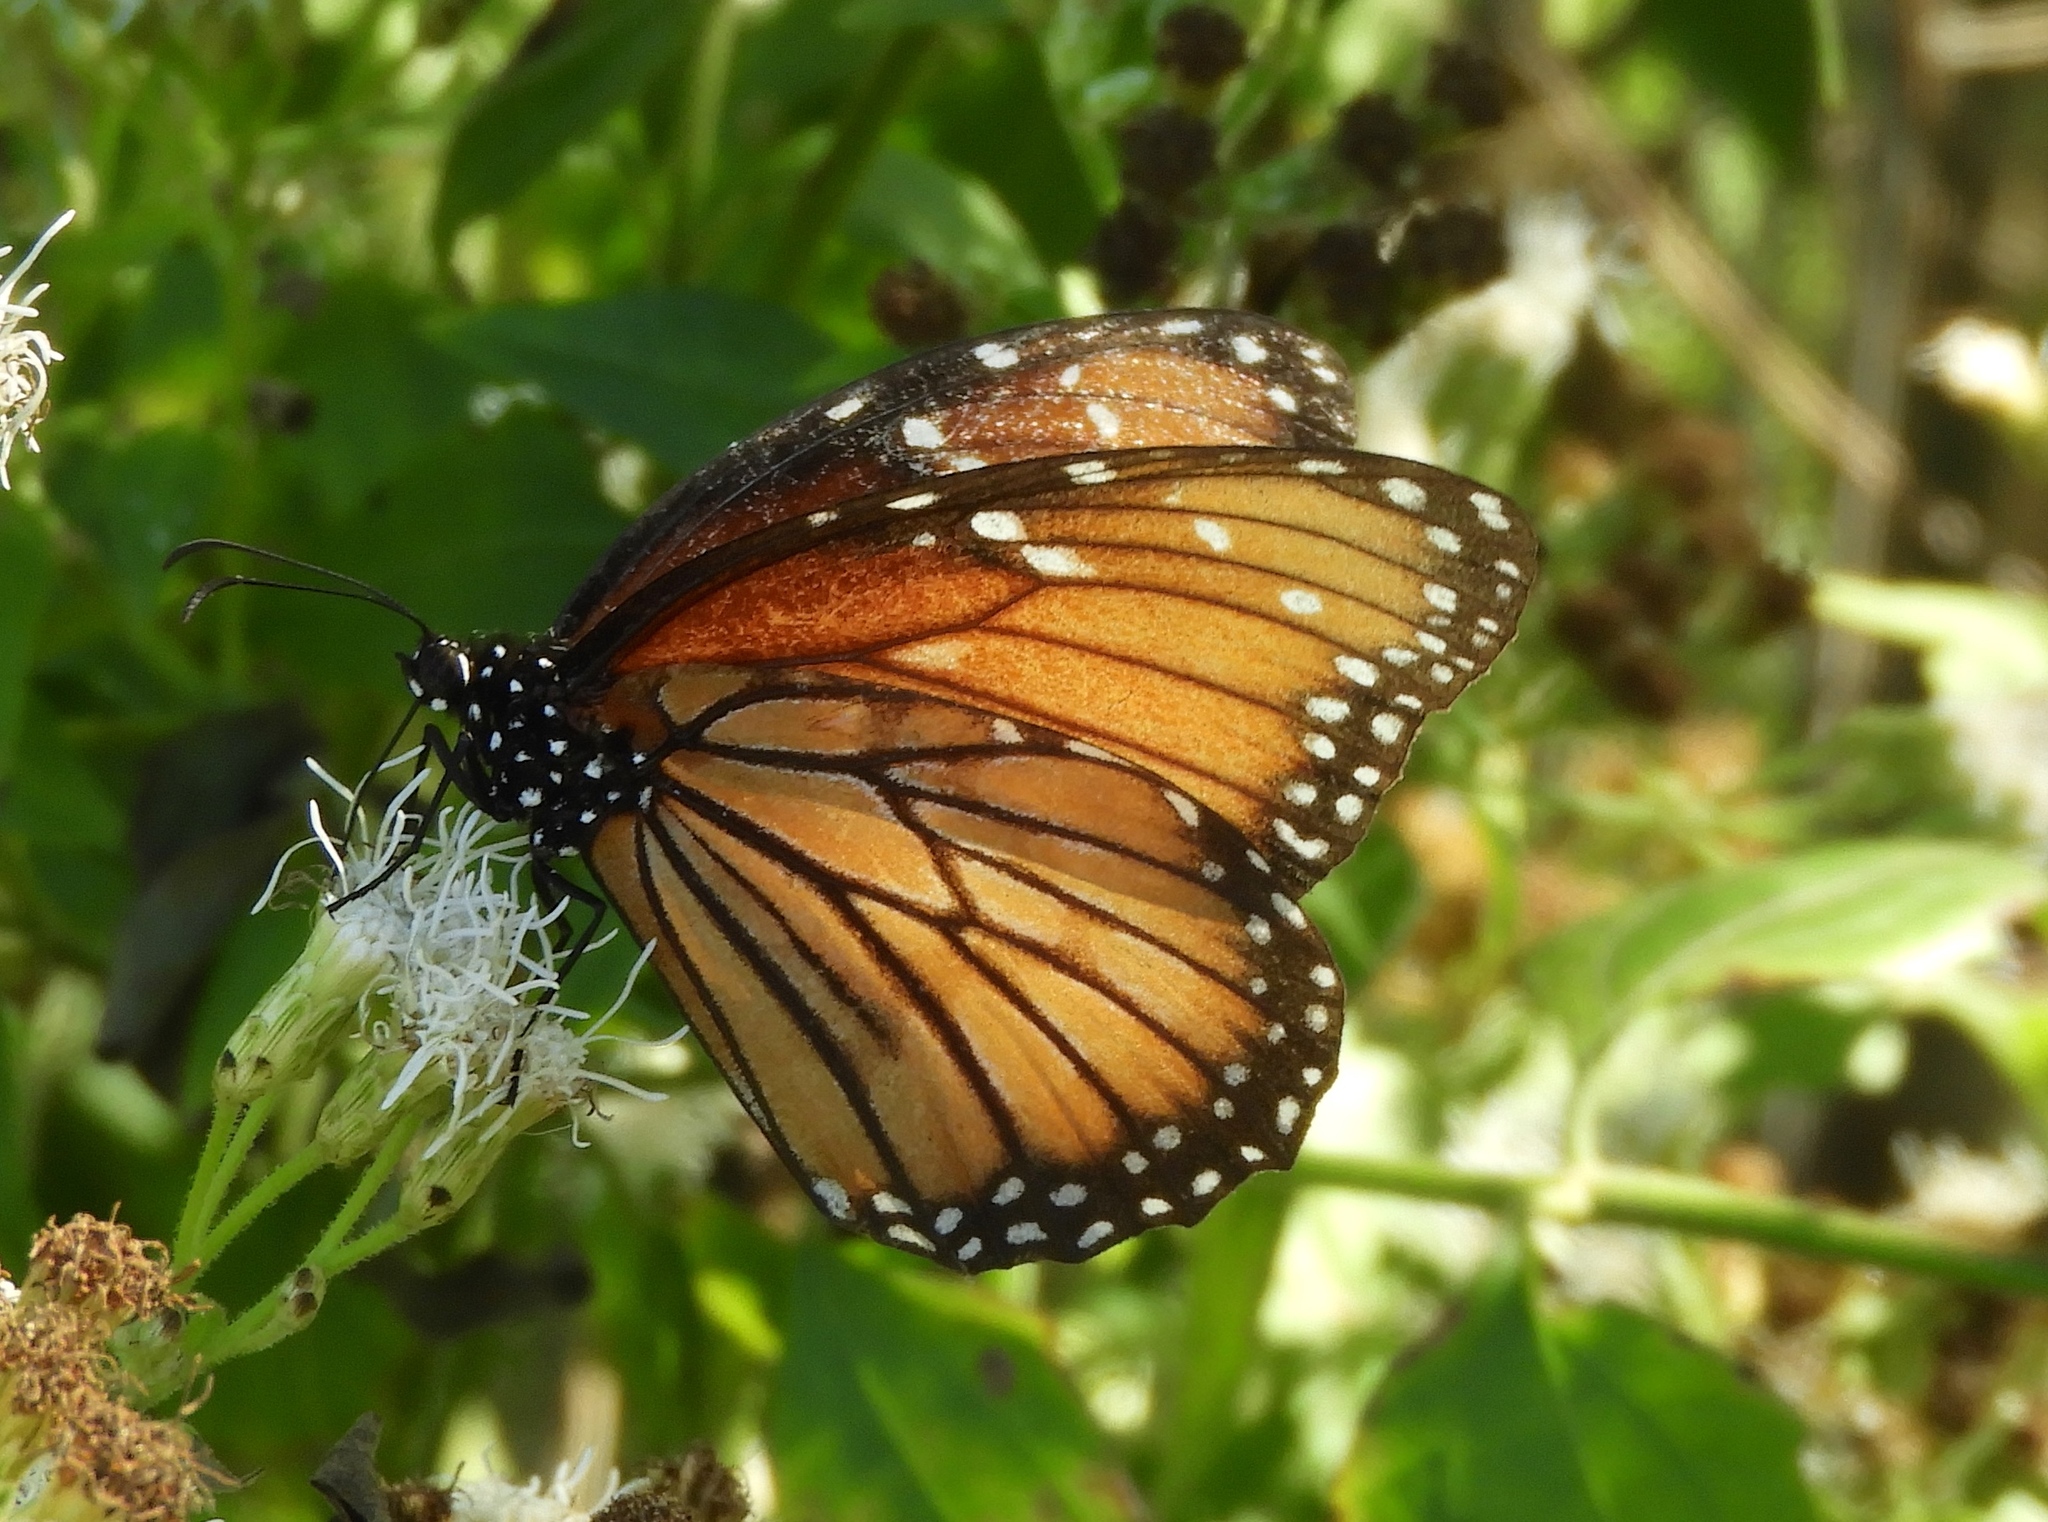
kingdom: Animalia
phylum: Arthropoda
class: Insecta
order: Lepidoptera
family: Nymphalidae
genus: Danaus
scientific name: Danaus eresimus
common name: Soldier
